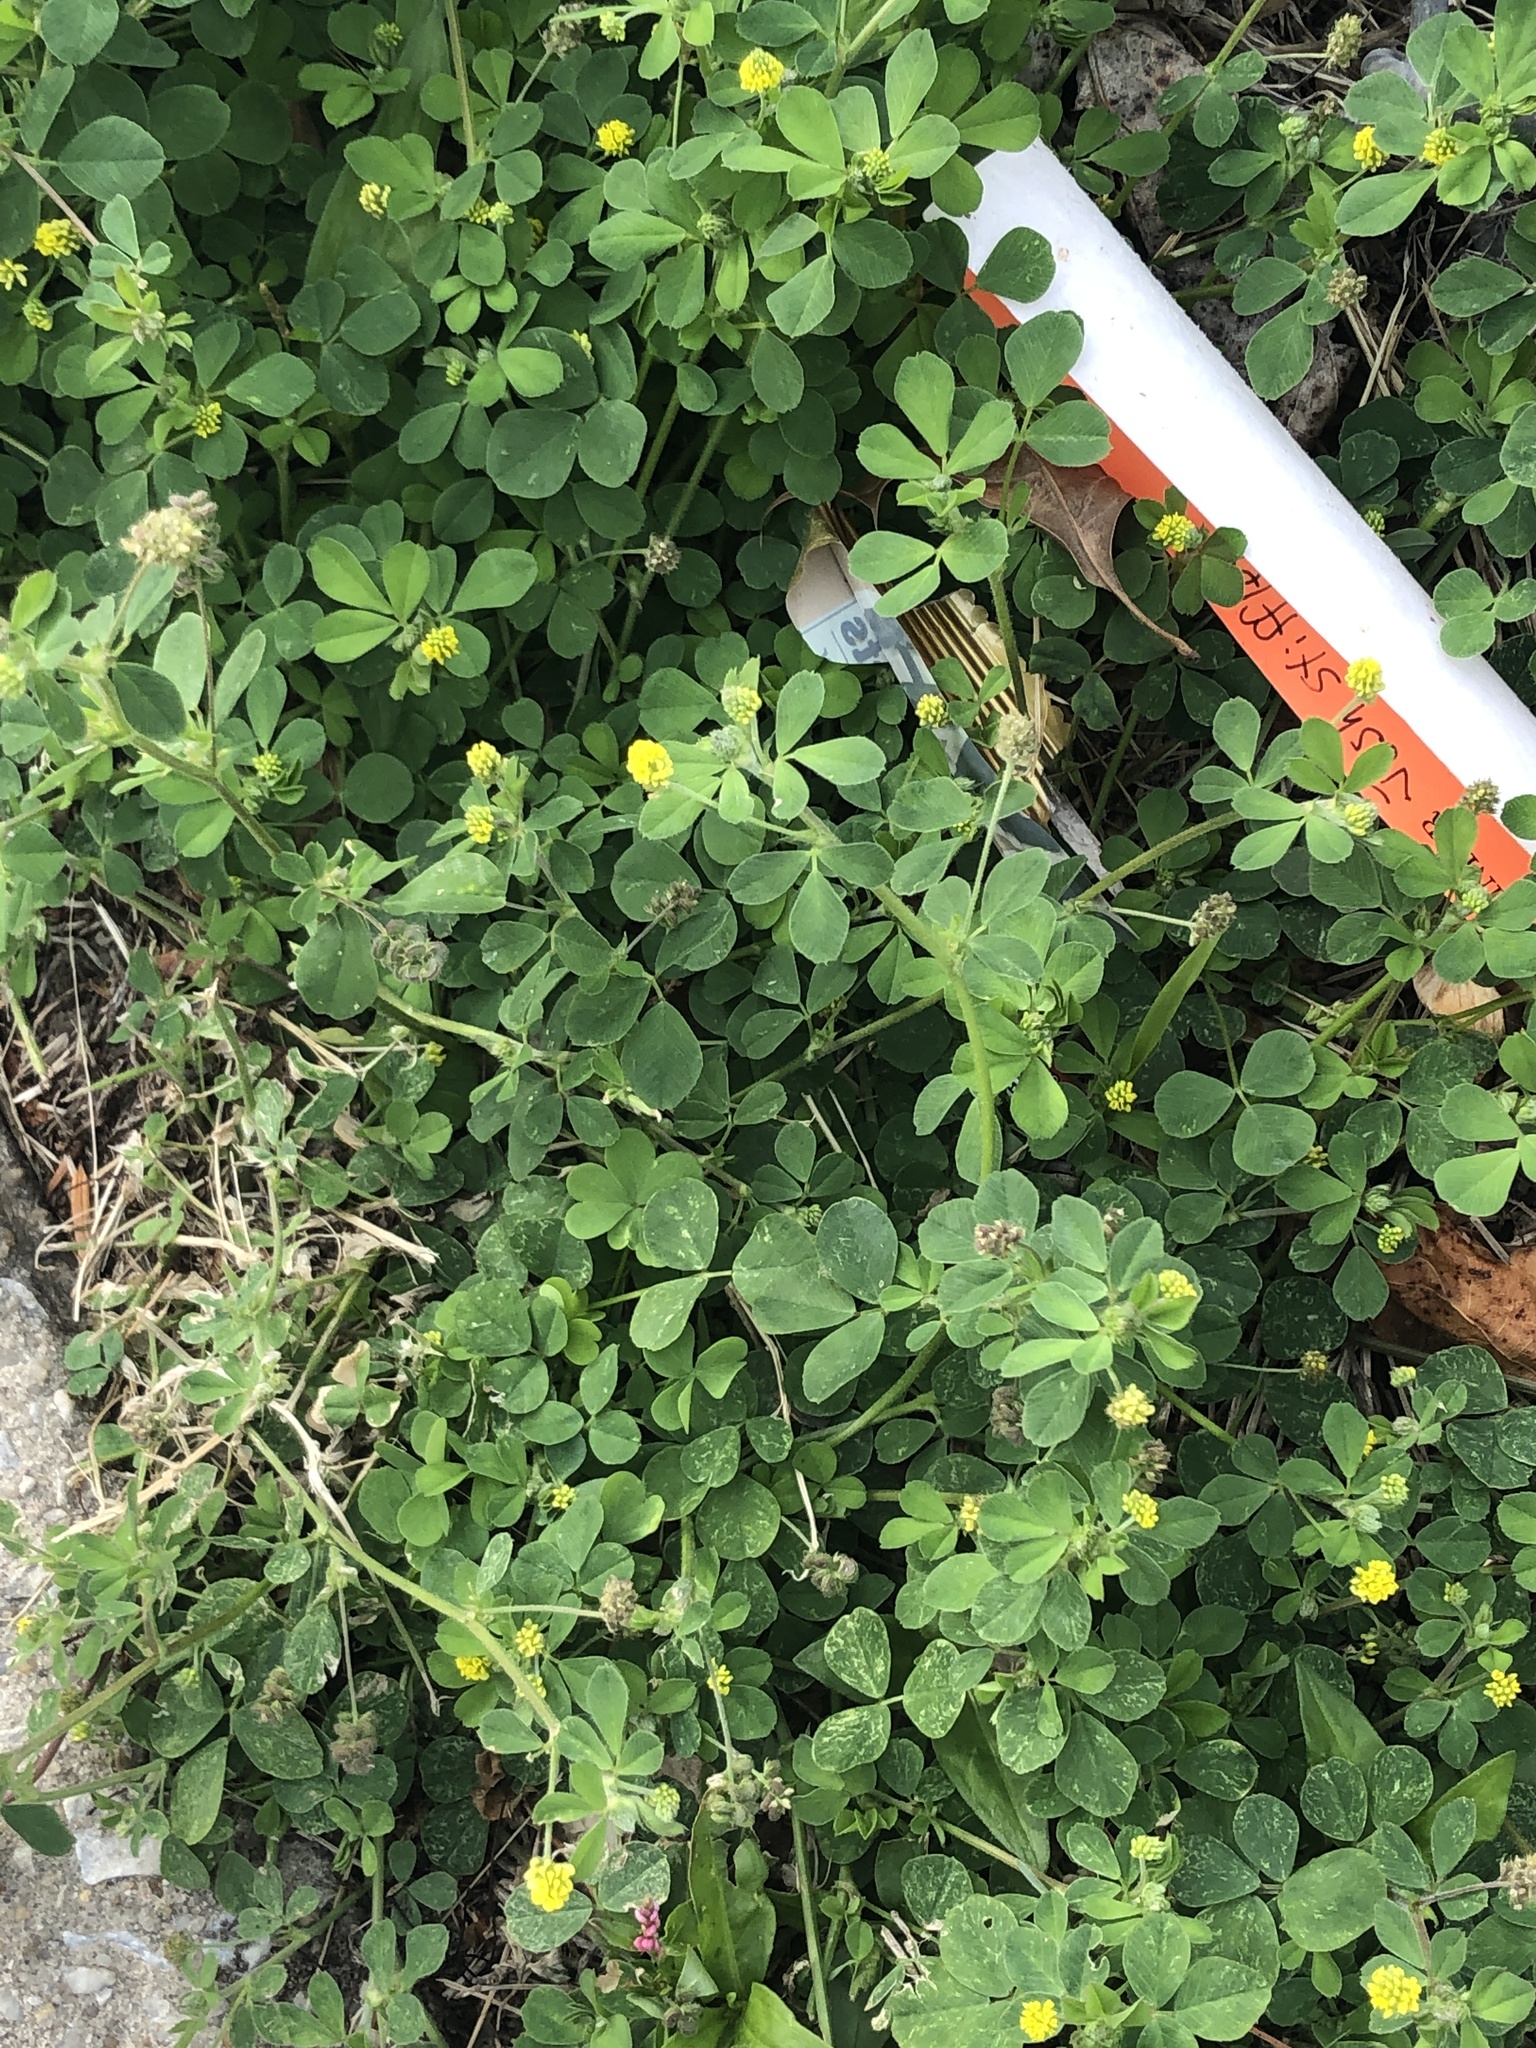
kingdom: Plantae
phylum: Tracheophyta
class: Magnoliopsida
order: Fabales
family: Fabaceae
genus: Medicago
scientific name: Medicago lupulina
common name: Black medick
